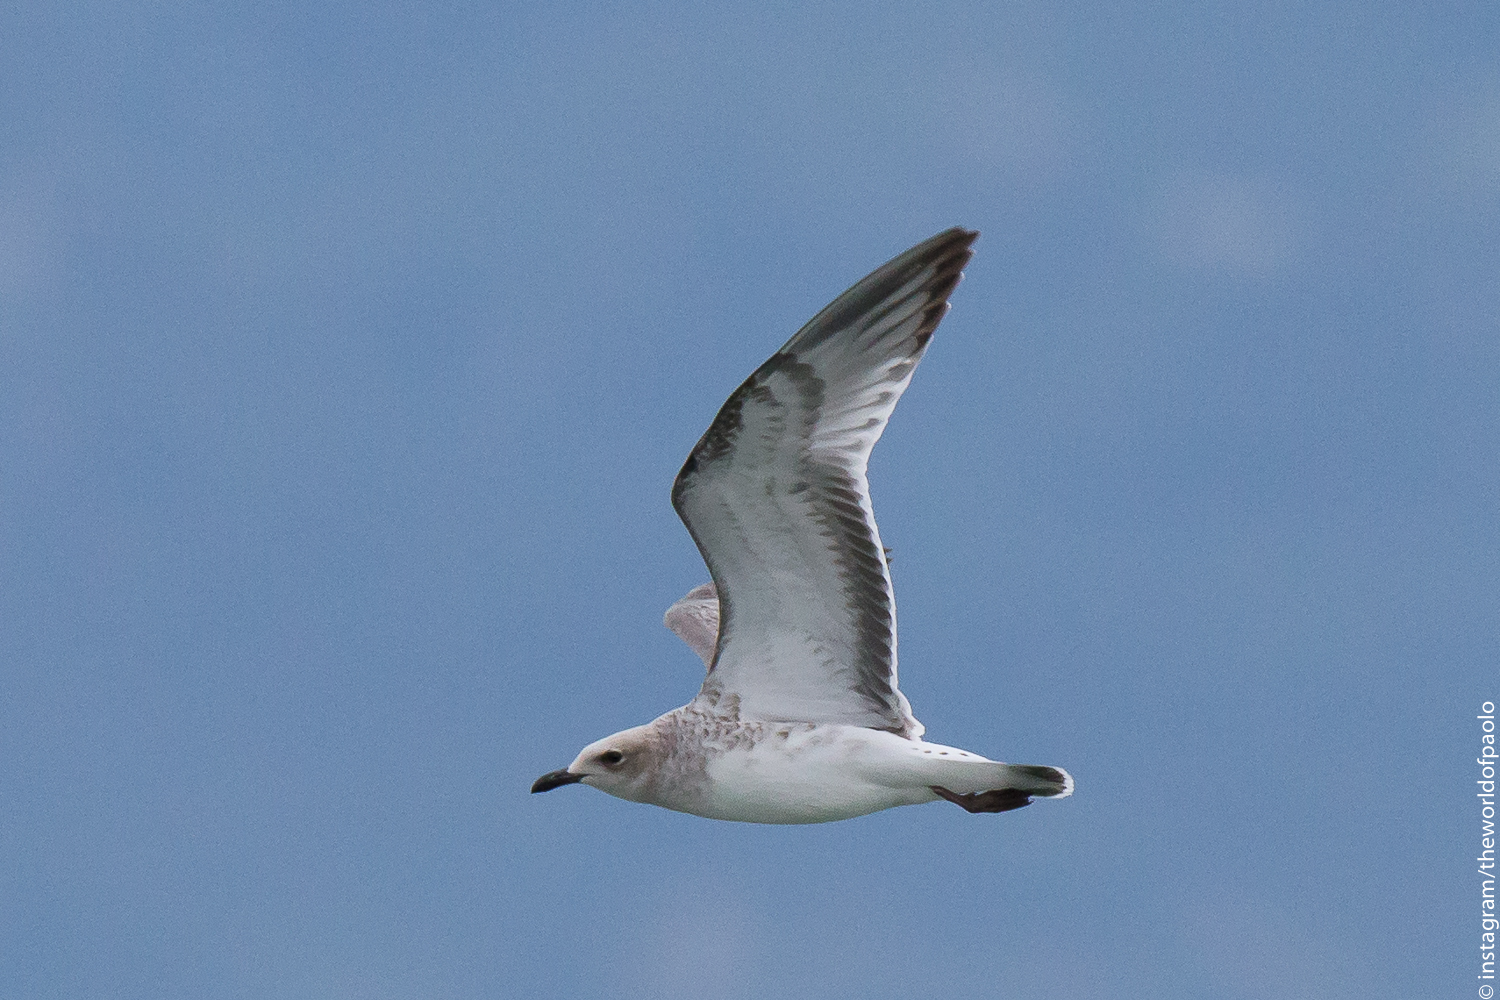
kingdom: Animalia
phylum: Chordata
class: Aves
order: Charadriiformes
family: Laridae
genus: Larus
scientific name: Larus michahellis
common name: Yellow-legged gull
